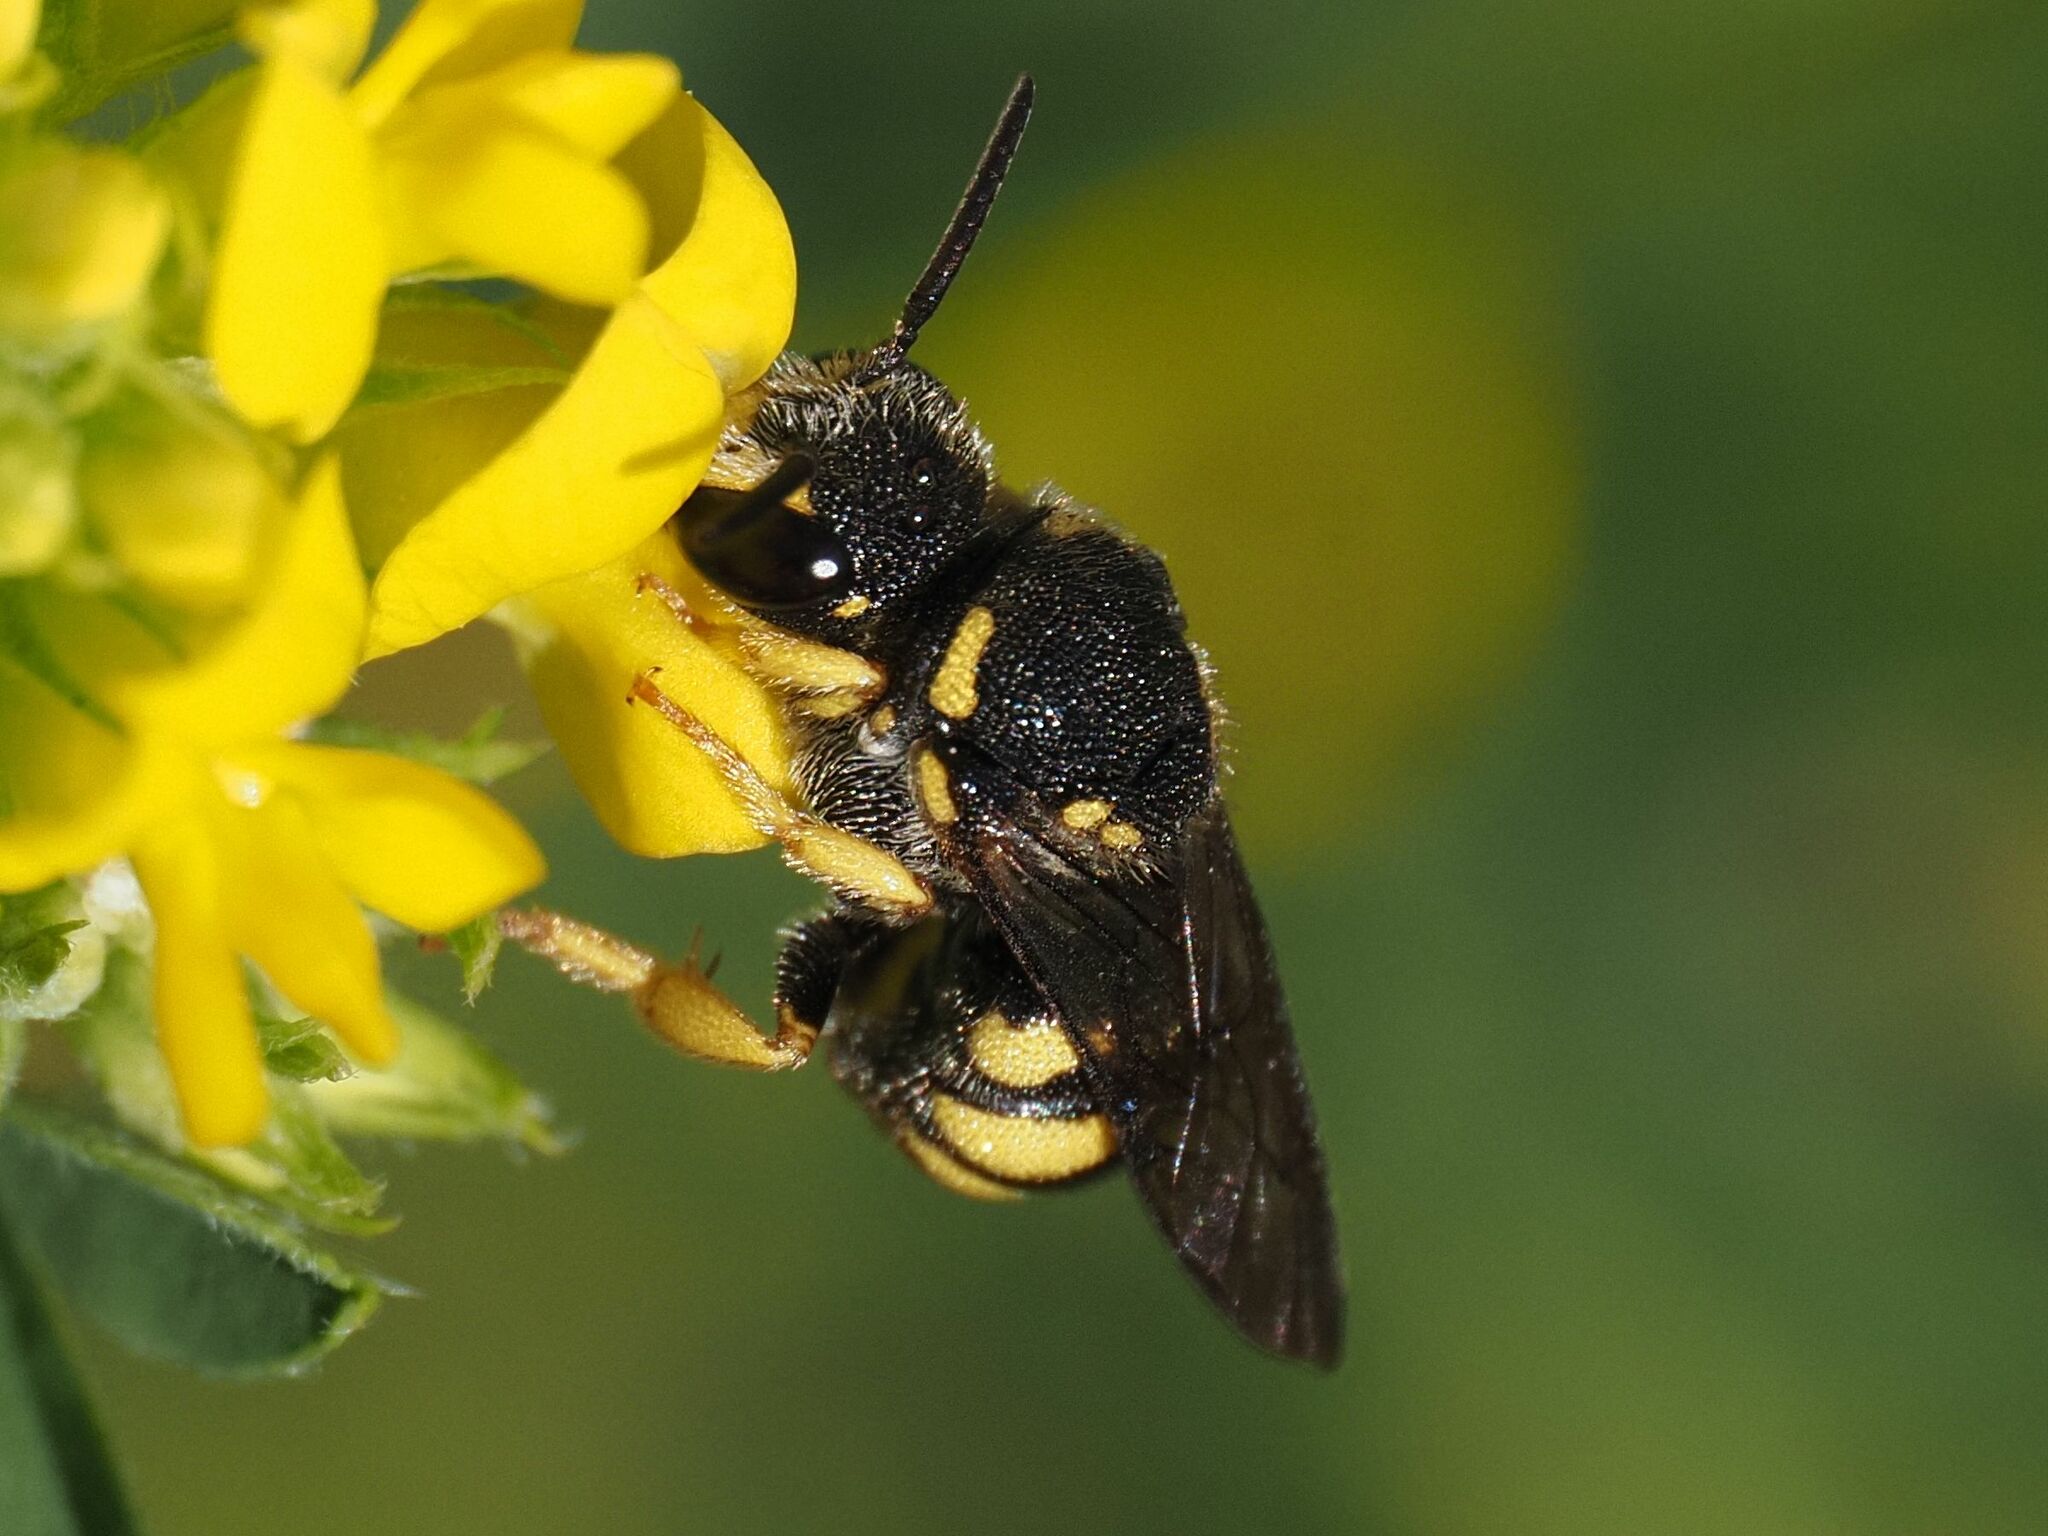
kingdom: Animalia
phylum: Arthropoda
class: Insecta
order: Hymenoptera
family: Megachilidae
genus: Stelis
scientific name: Stelis signata
